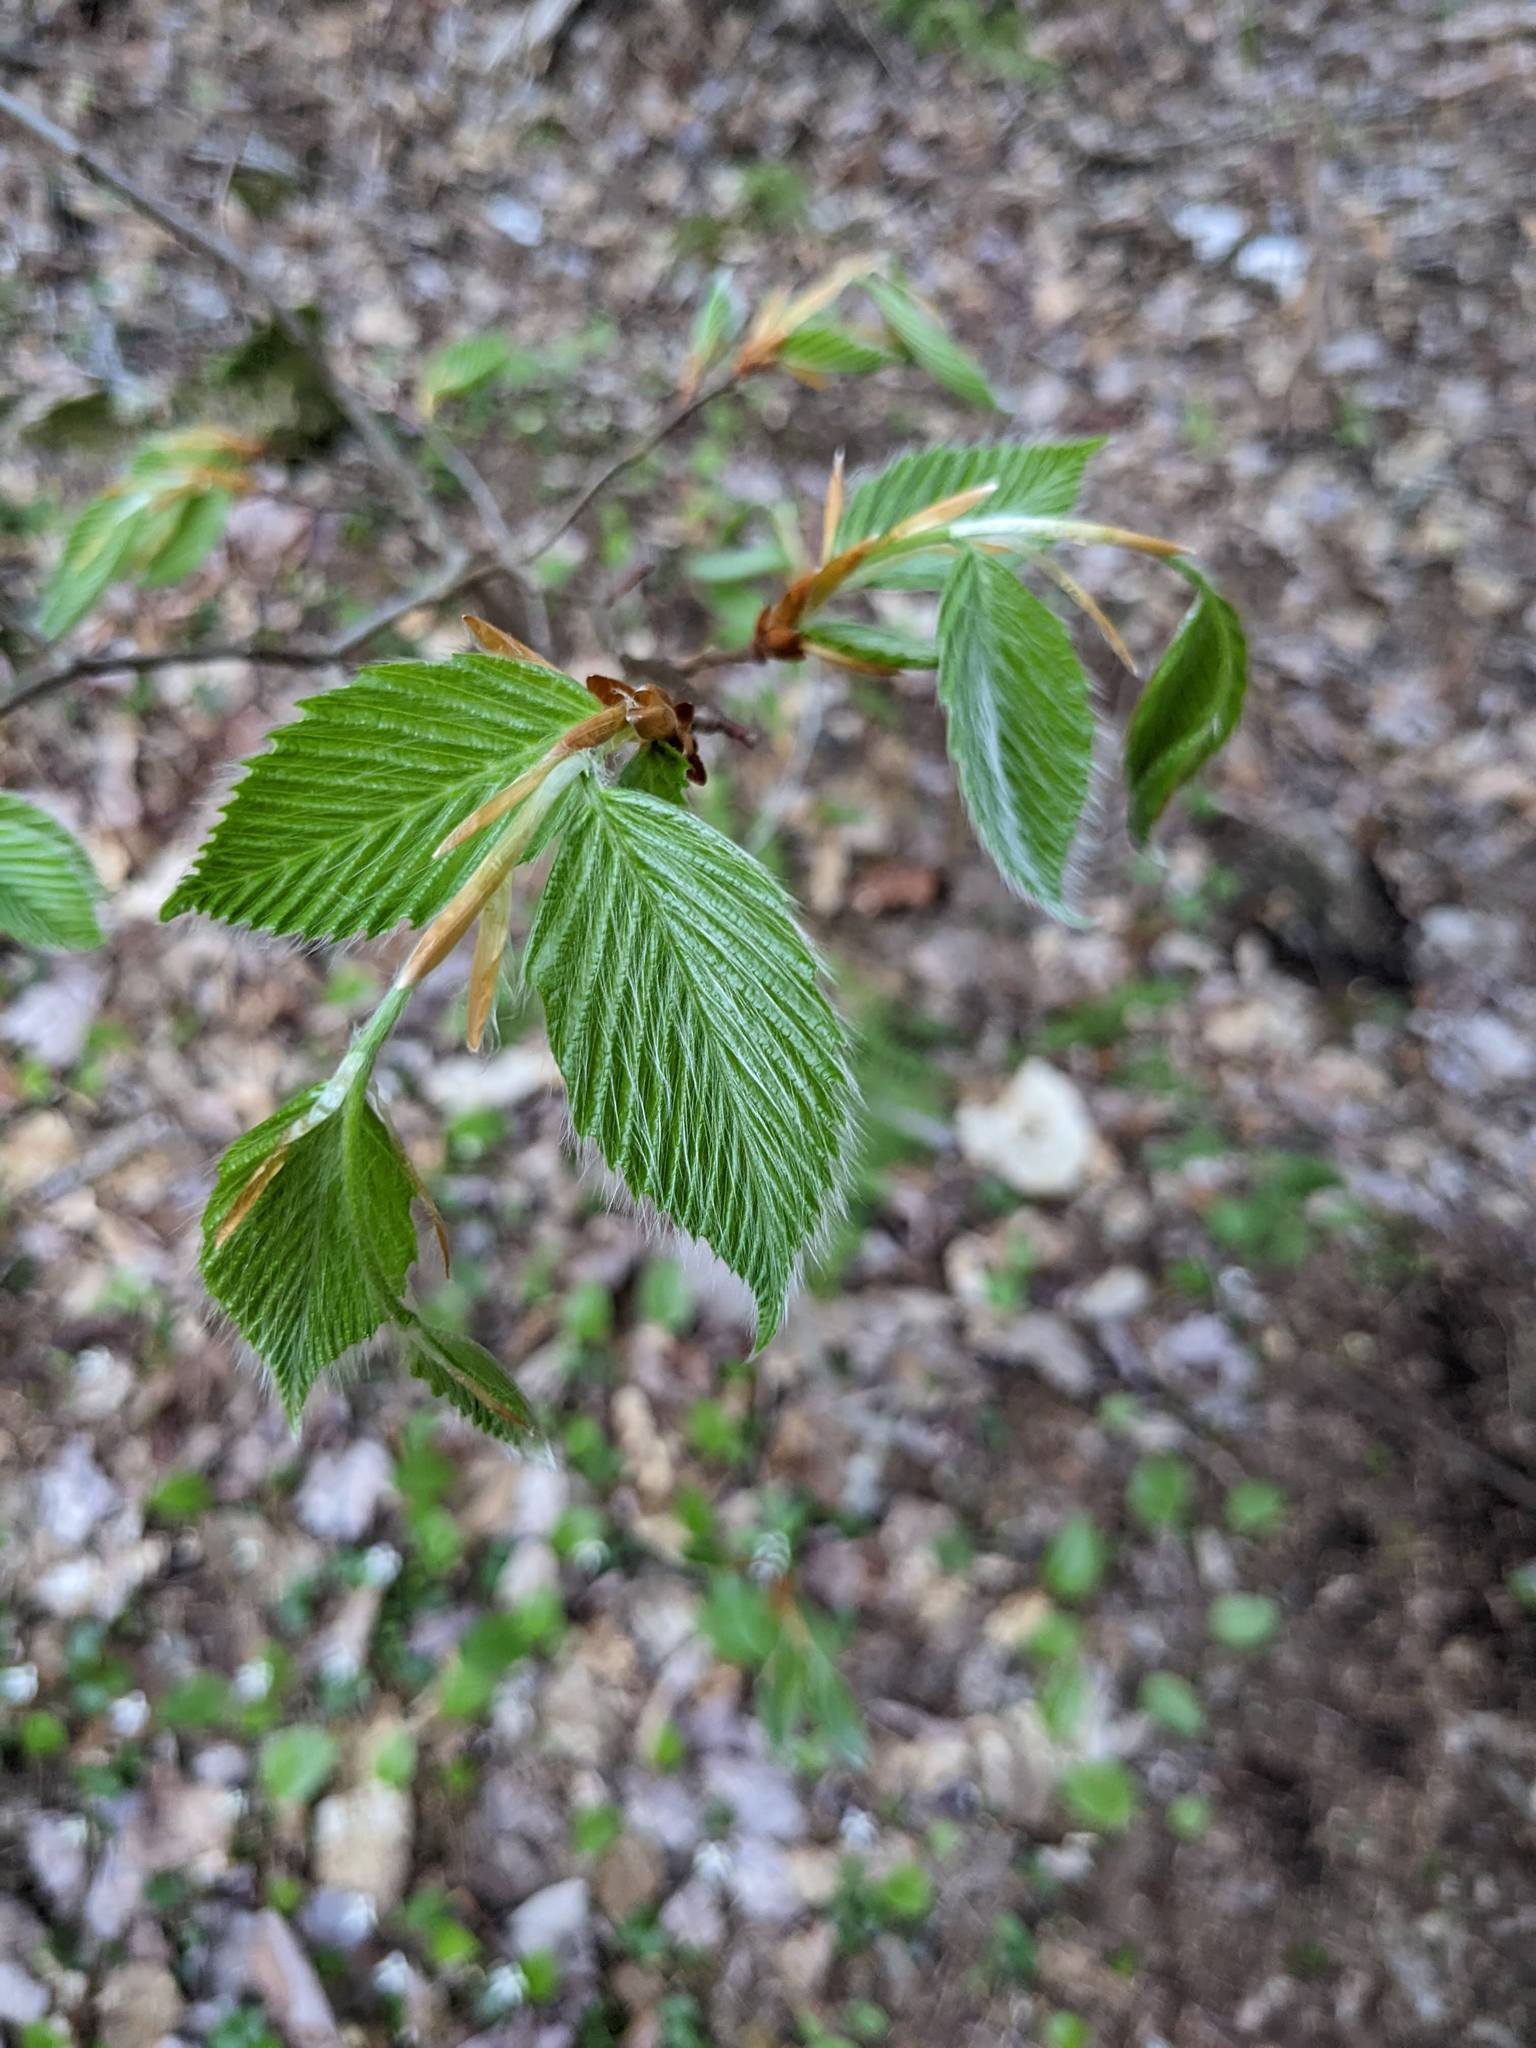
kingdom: Plantae
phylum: Tracheophyta
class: Magnoliopsida
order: Fagales
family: Fagaceae
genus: Fagus
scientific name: Fagus grandifolia
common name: American beech
